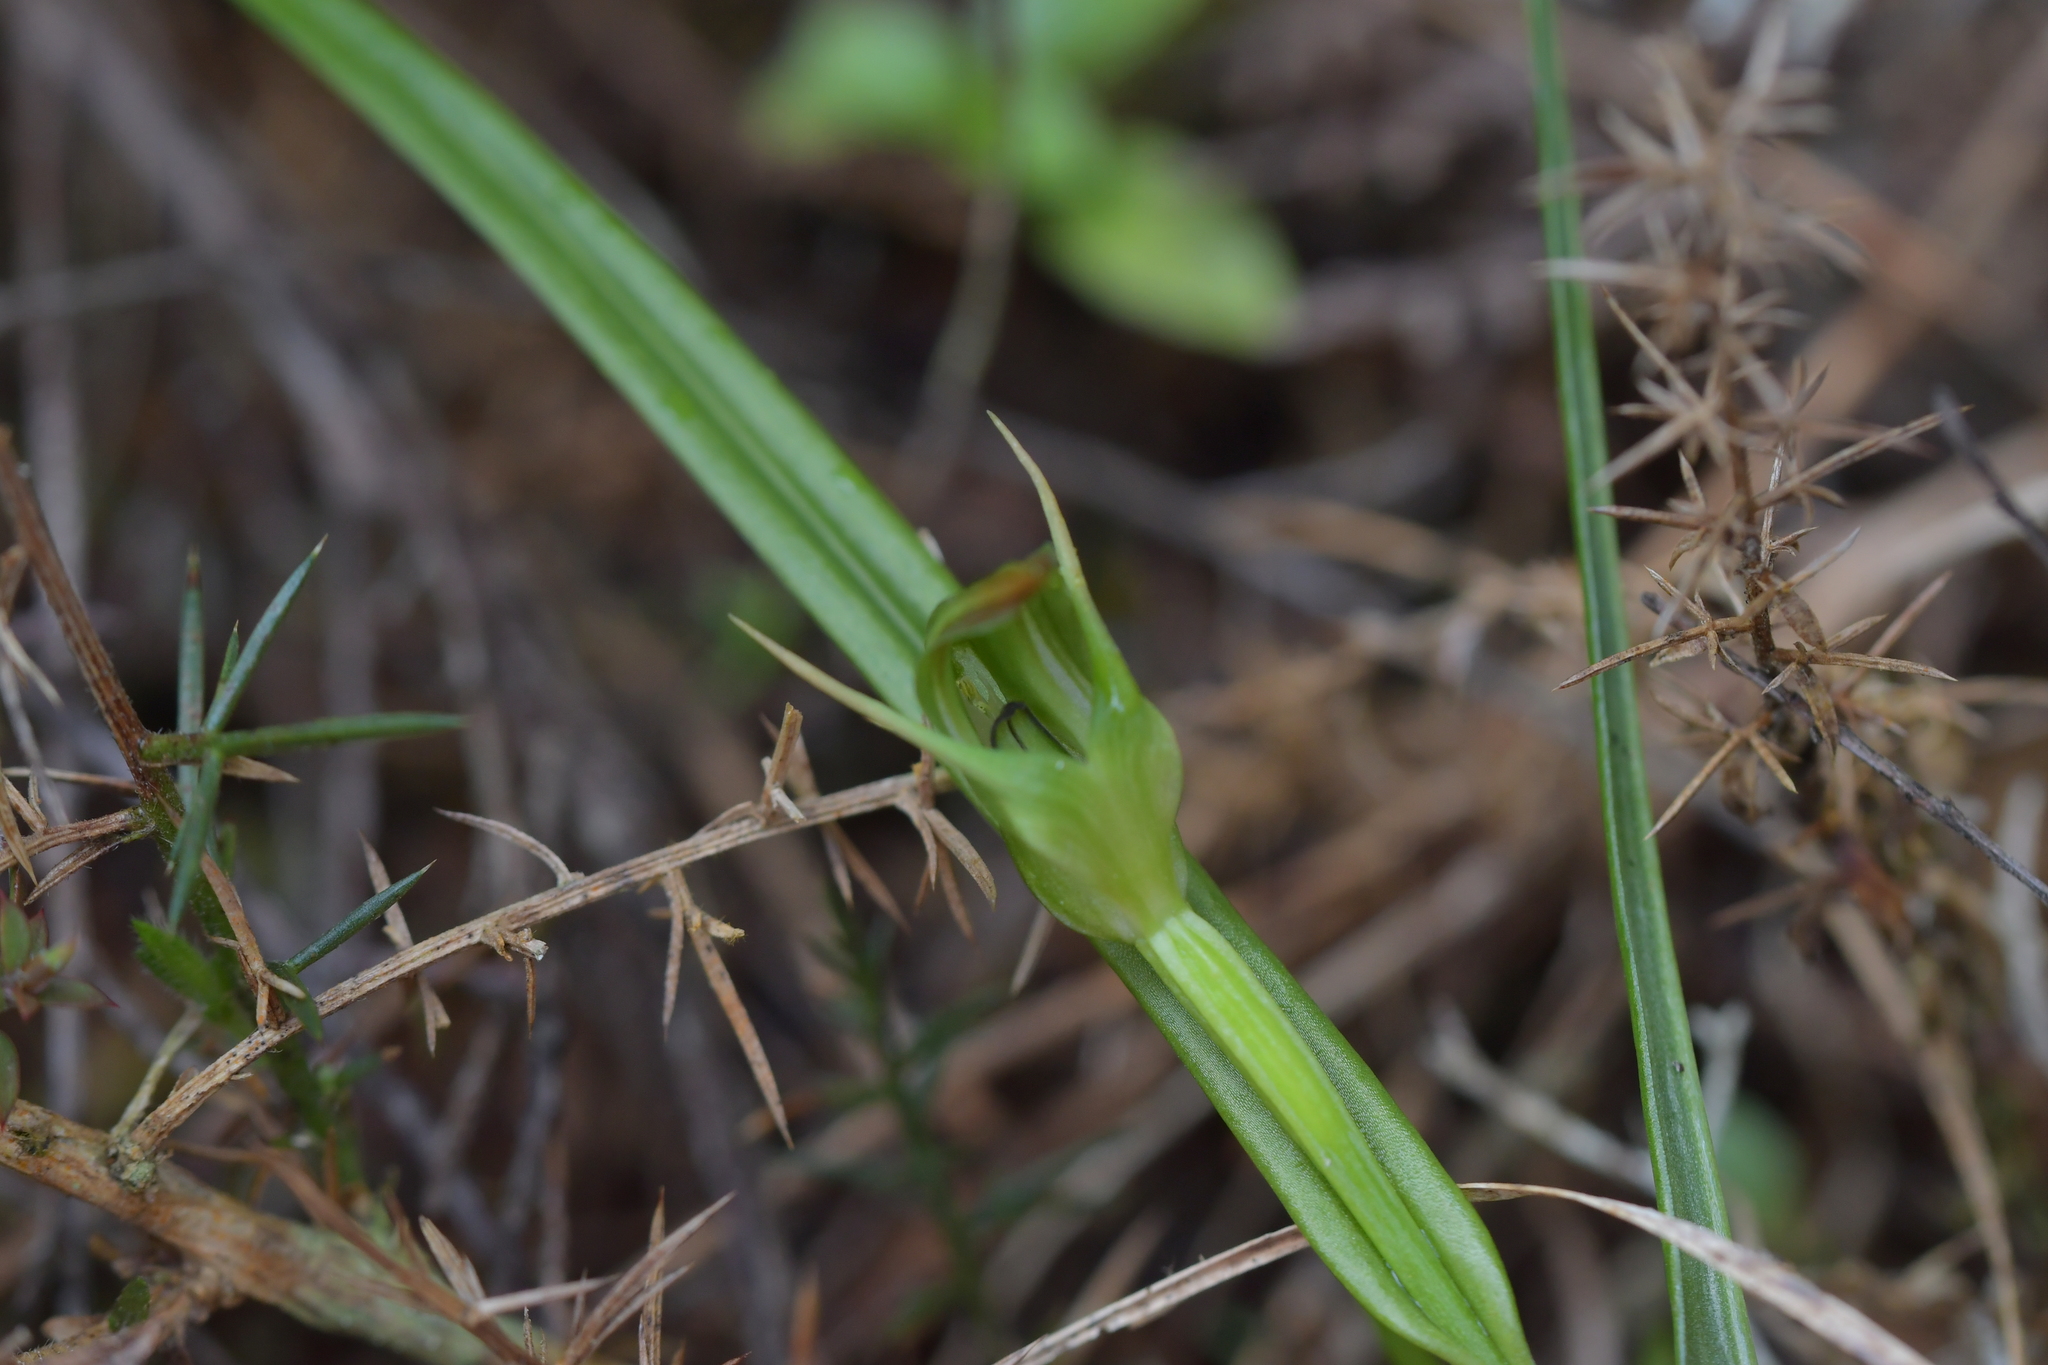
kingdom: Plantae
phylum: Tracheophyta
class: Liliopsida
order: Asparagales
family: Orchidaceae
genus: Pterostylis
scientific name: Pterostylis graminea
